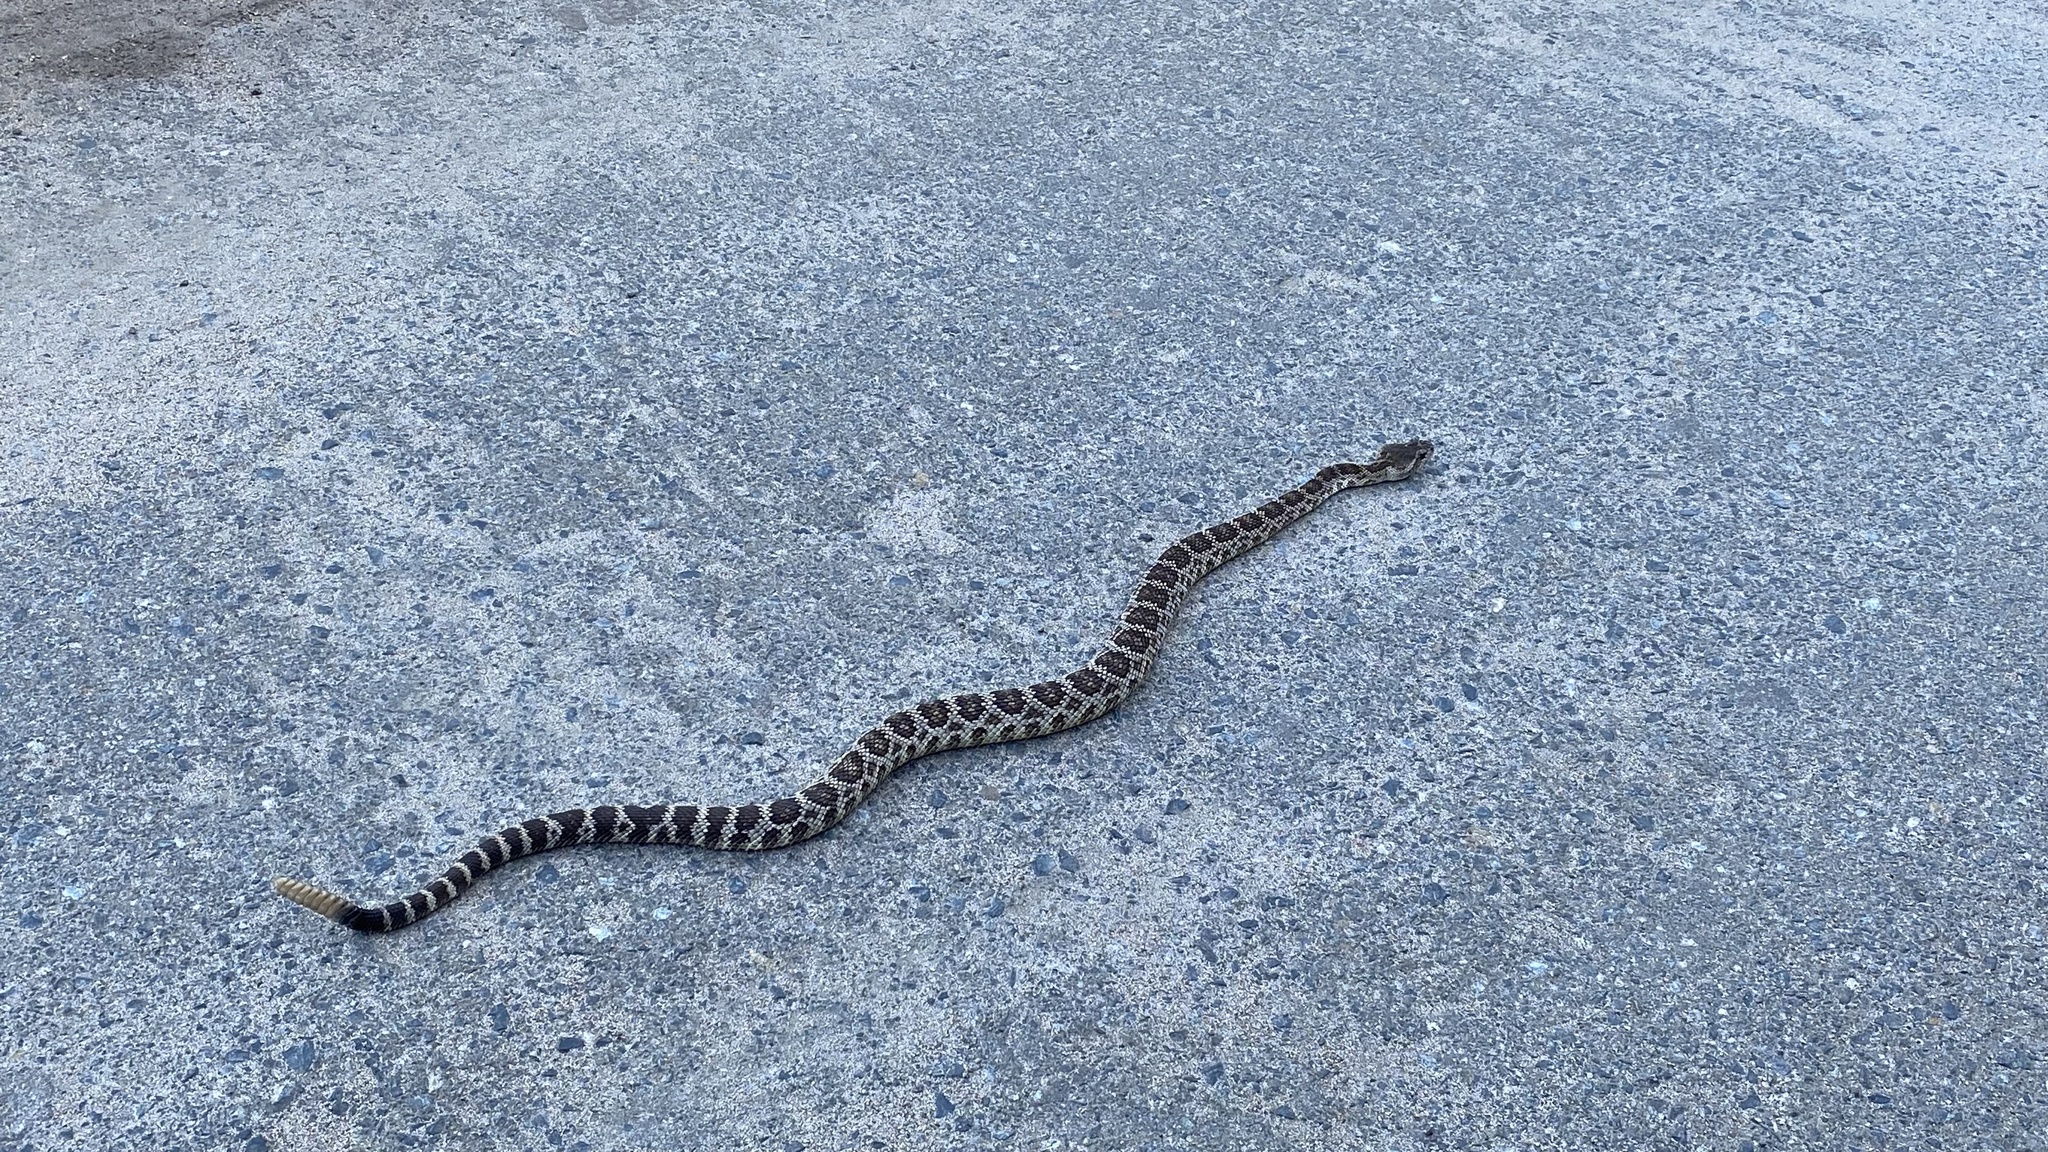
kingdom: Animalia
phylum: Chordata
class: Squamata
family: Viperidae
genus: Crotalus
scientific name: Crotalus oreganus
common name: Abyssus
